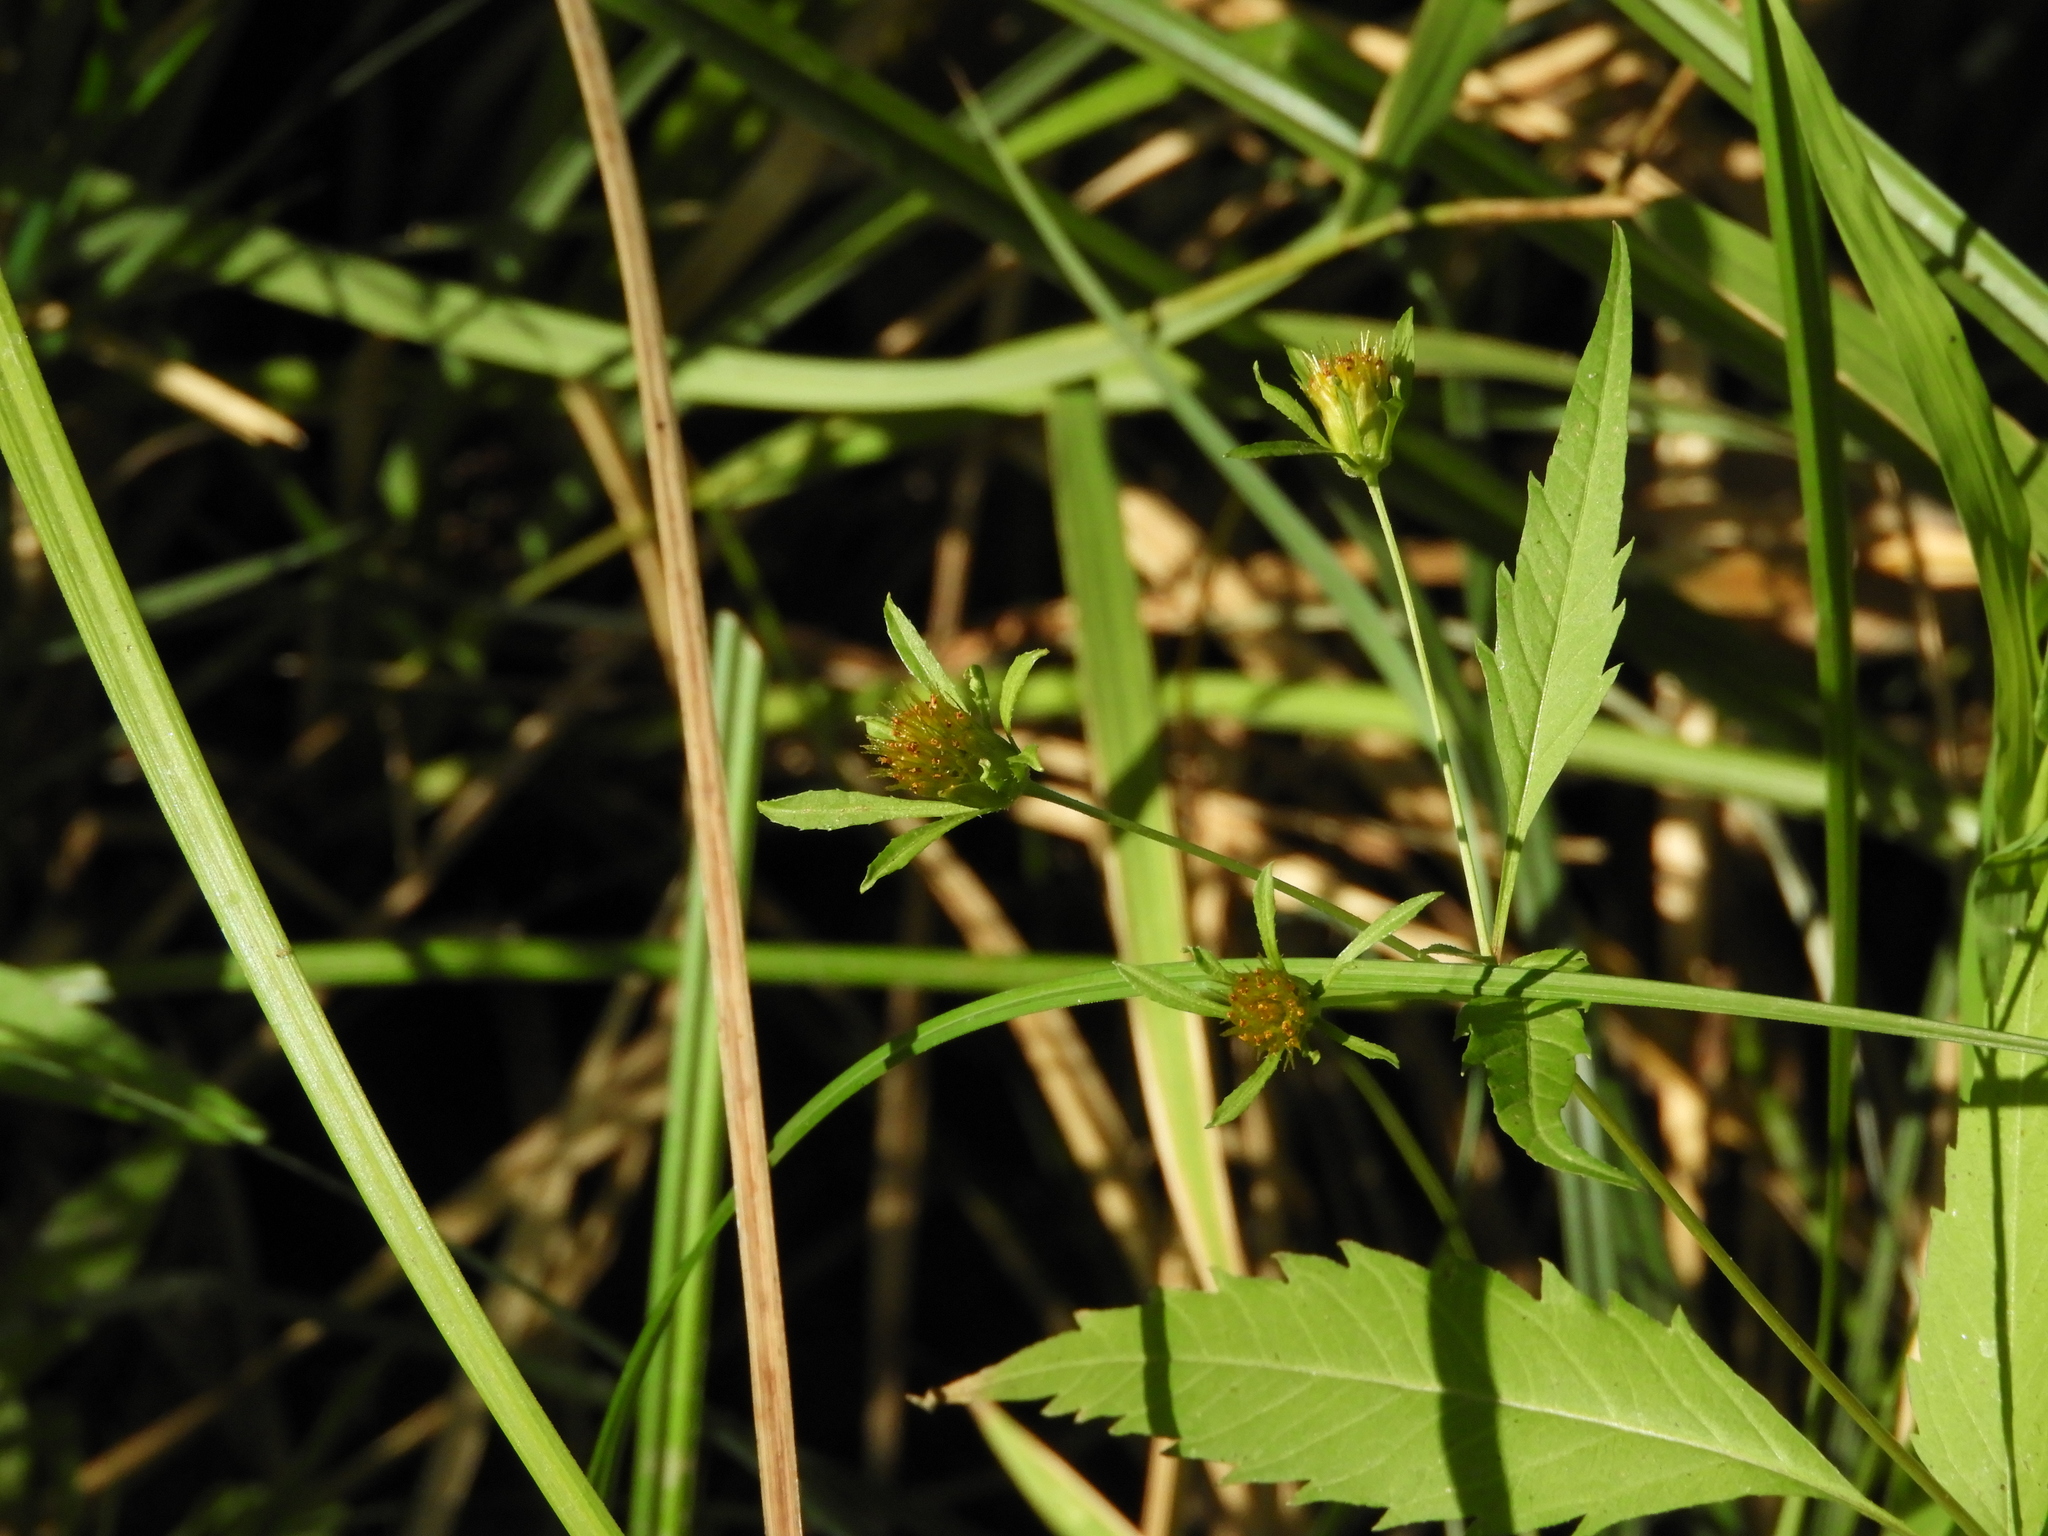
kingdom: Plantae
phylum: Tracheophyta
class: Magnoliopsida
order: Asterales
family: Asteraceae
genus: Bidens
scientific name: Bidens frondosa
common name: Beggarticks
